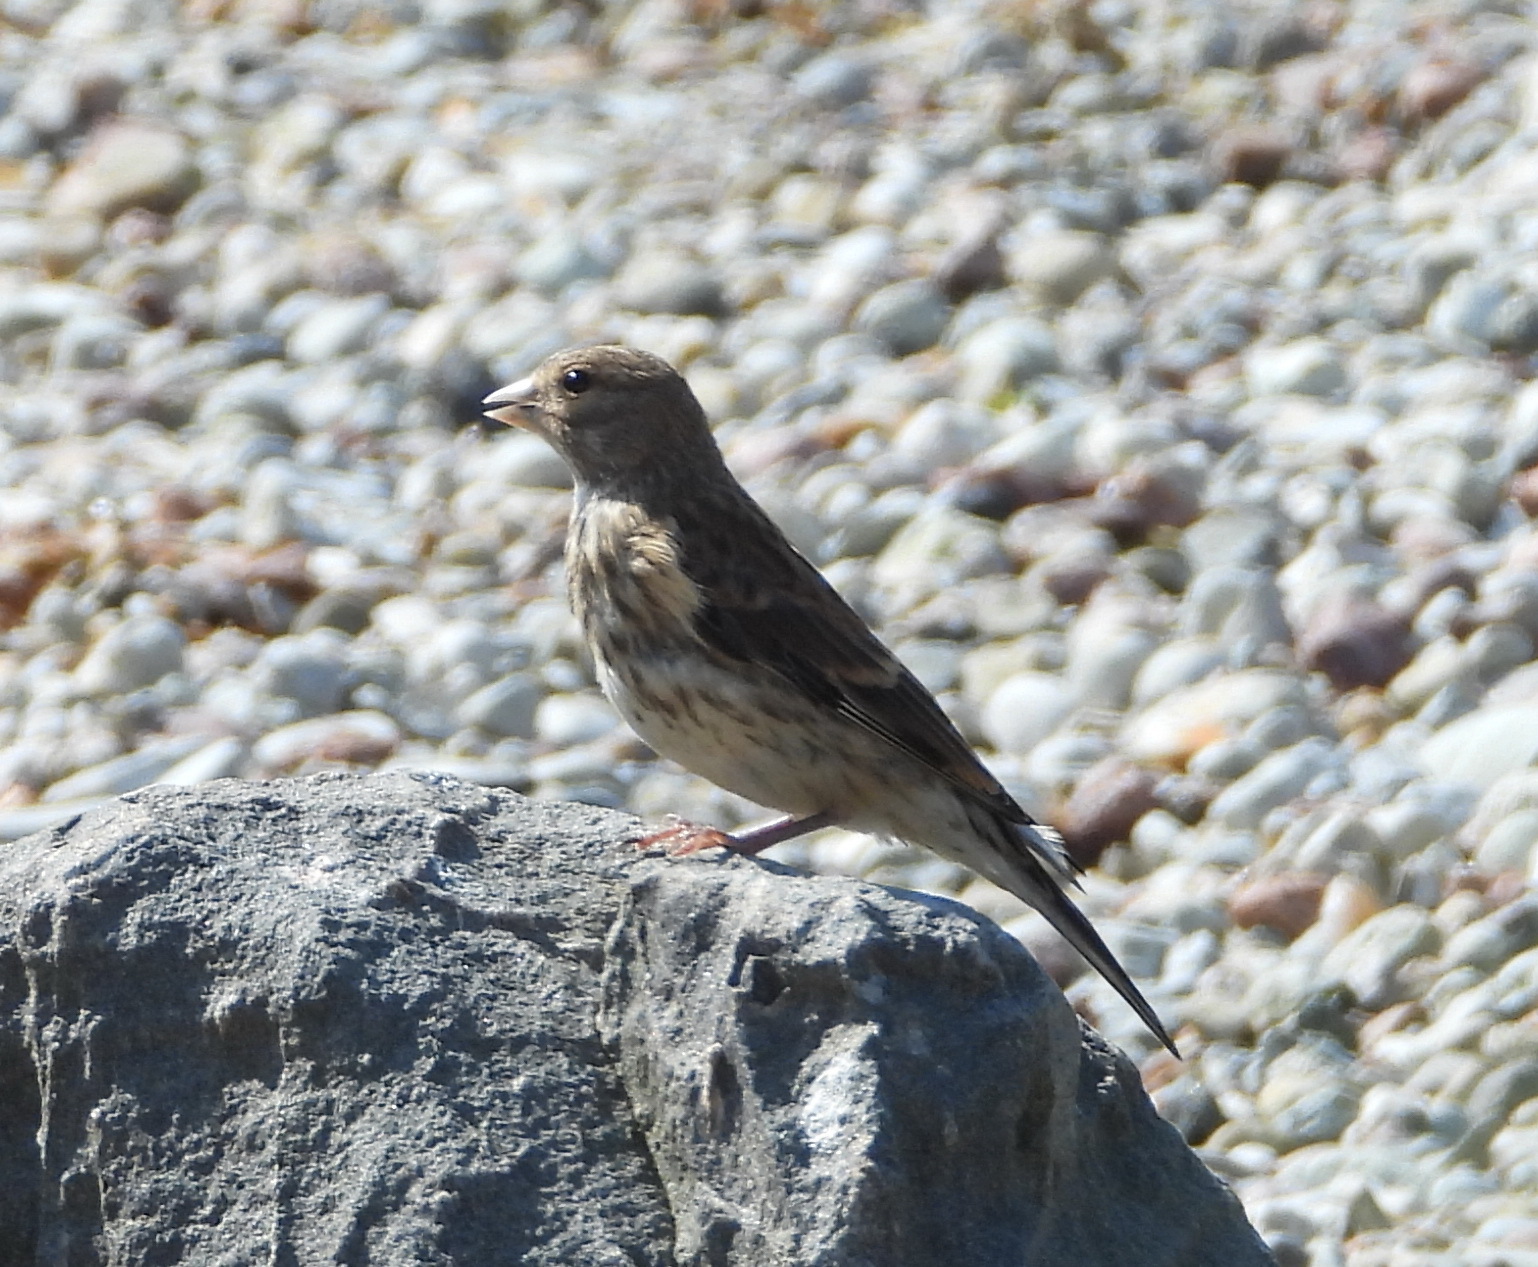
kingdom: Animalia
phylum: Chordata
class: Aves
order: Passeriformes
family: Fringillidae
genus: Linaria
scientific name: Linaria cannabina
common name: Common linnet
